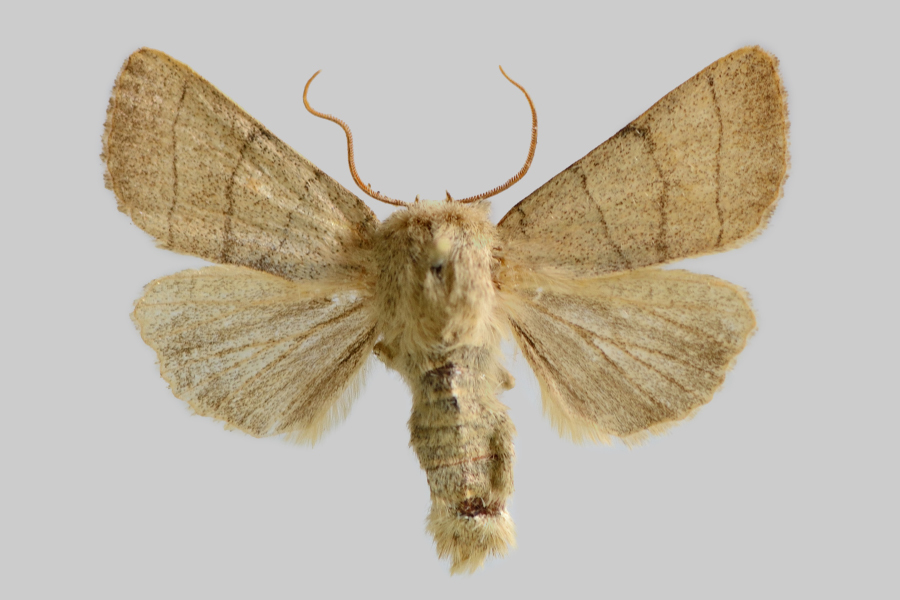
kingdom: Animalia
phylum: Arthropoda
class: Insecta
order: Lepidoptera
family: Noctuidae
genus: Charanyca
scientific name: Charanyca trigrammica
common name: Treble lines
